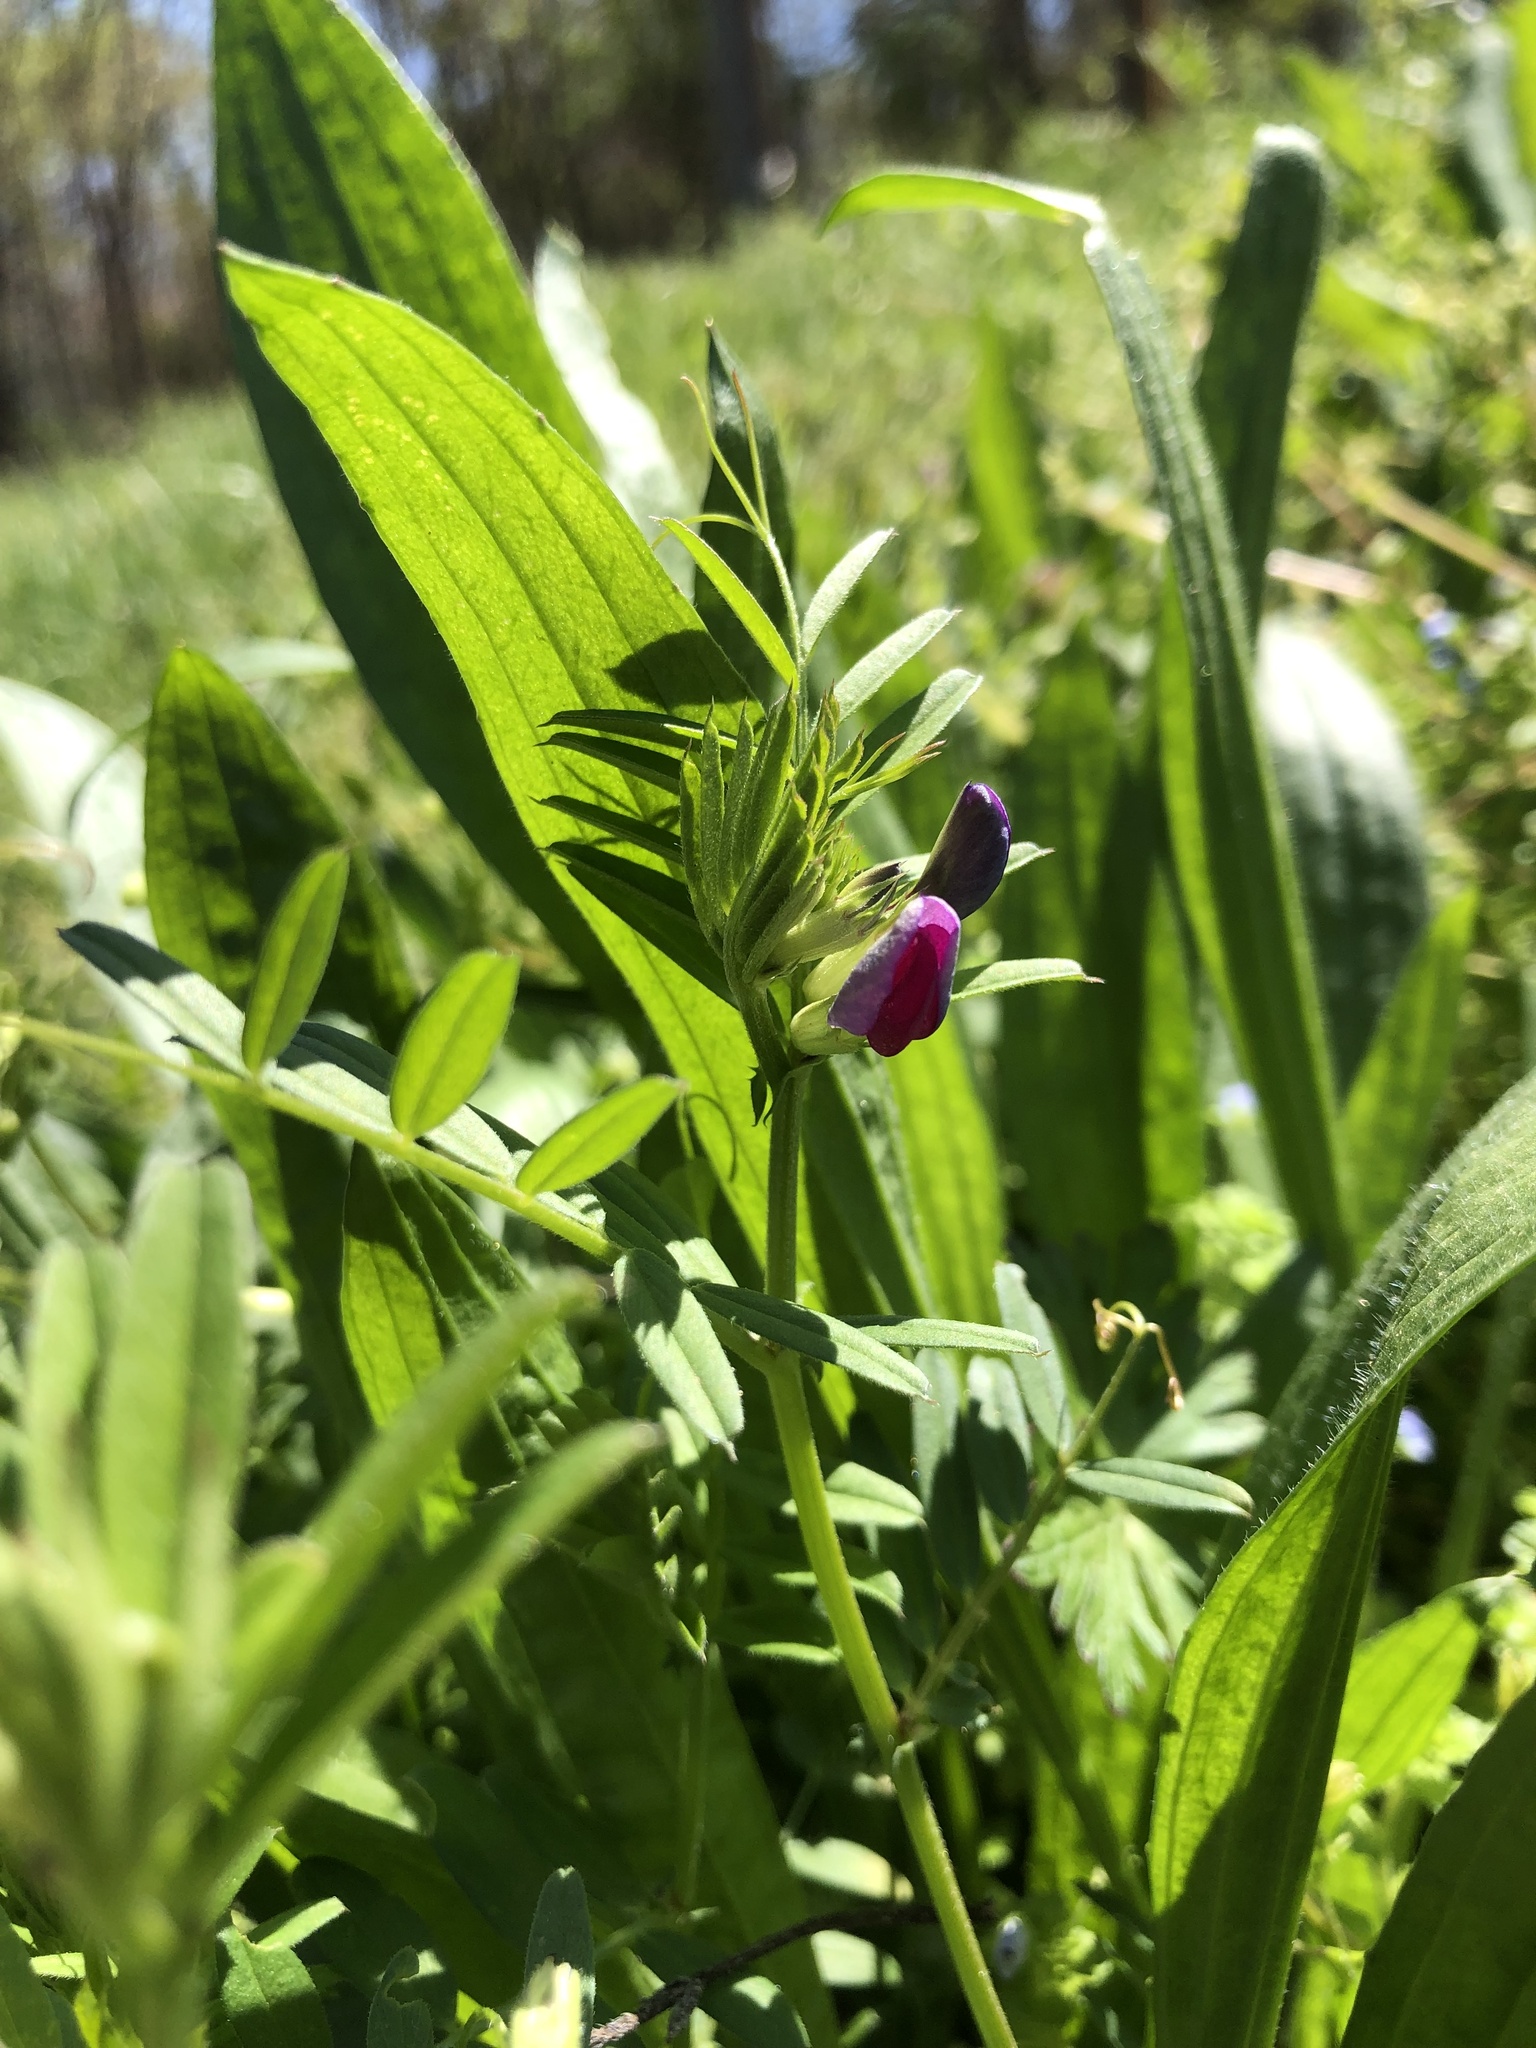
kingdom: Plantae
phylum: Tracheophyta
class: Magnoliopsida
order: Fabales
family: Fabaceae
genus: Vicia
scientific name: Vicia sativa
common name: Garden vetch
